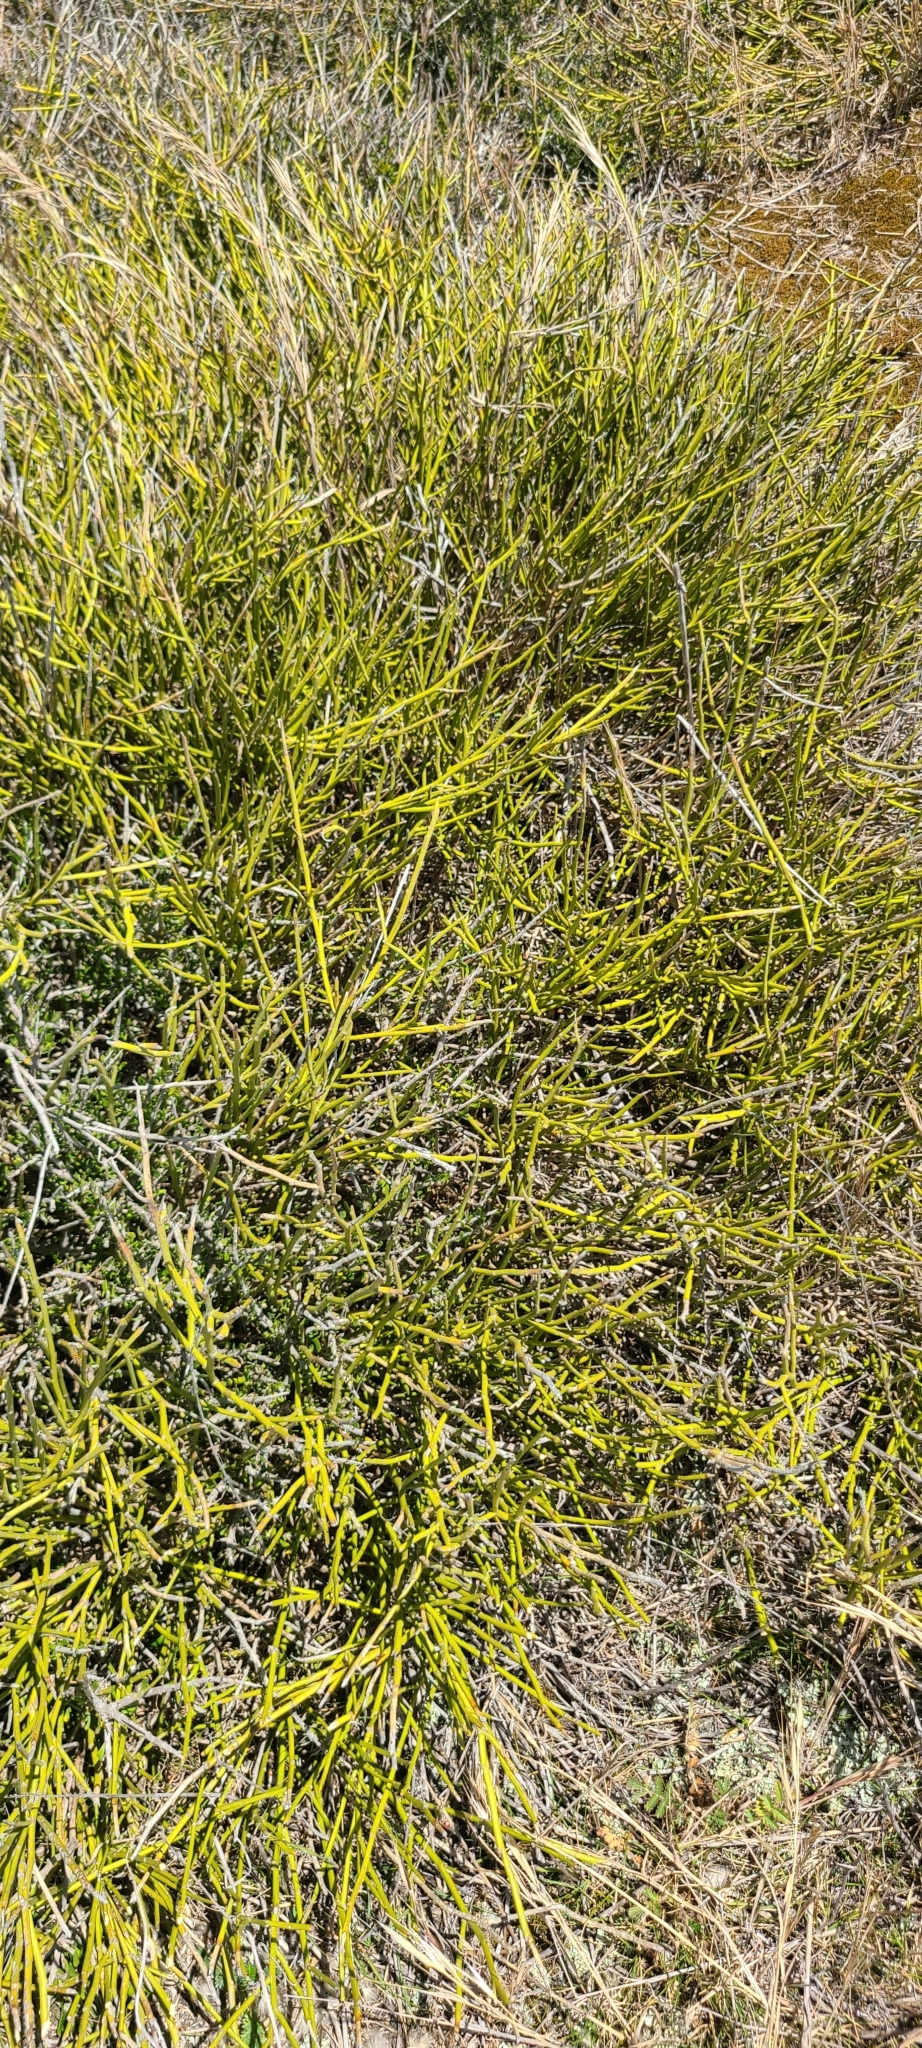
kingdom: Plantae
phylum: Tracheophyta
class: Magnoliopsida
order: Fabales
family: Fabaceae
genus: Carmichaelia
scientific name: Carmichaelia appressa
